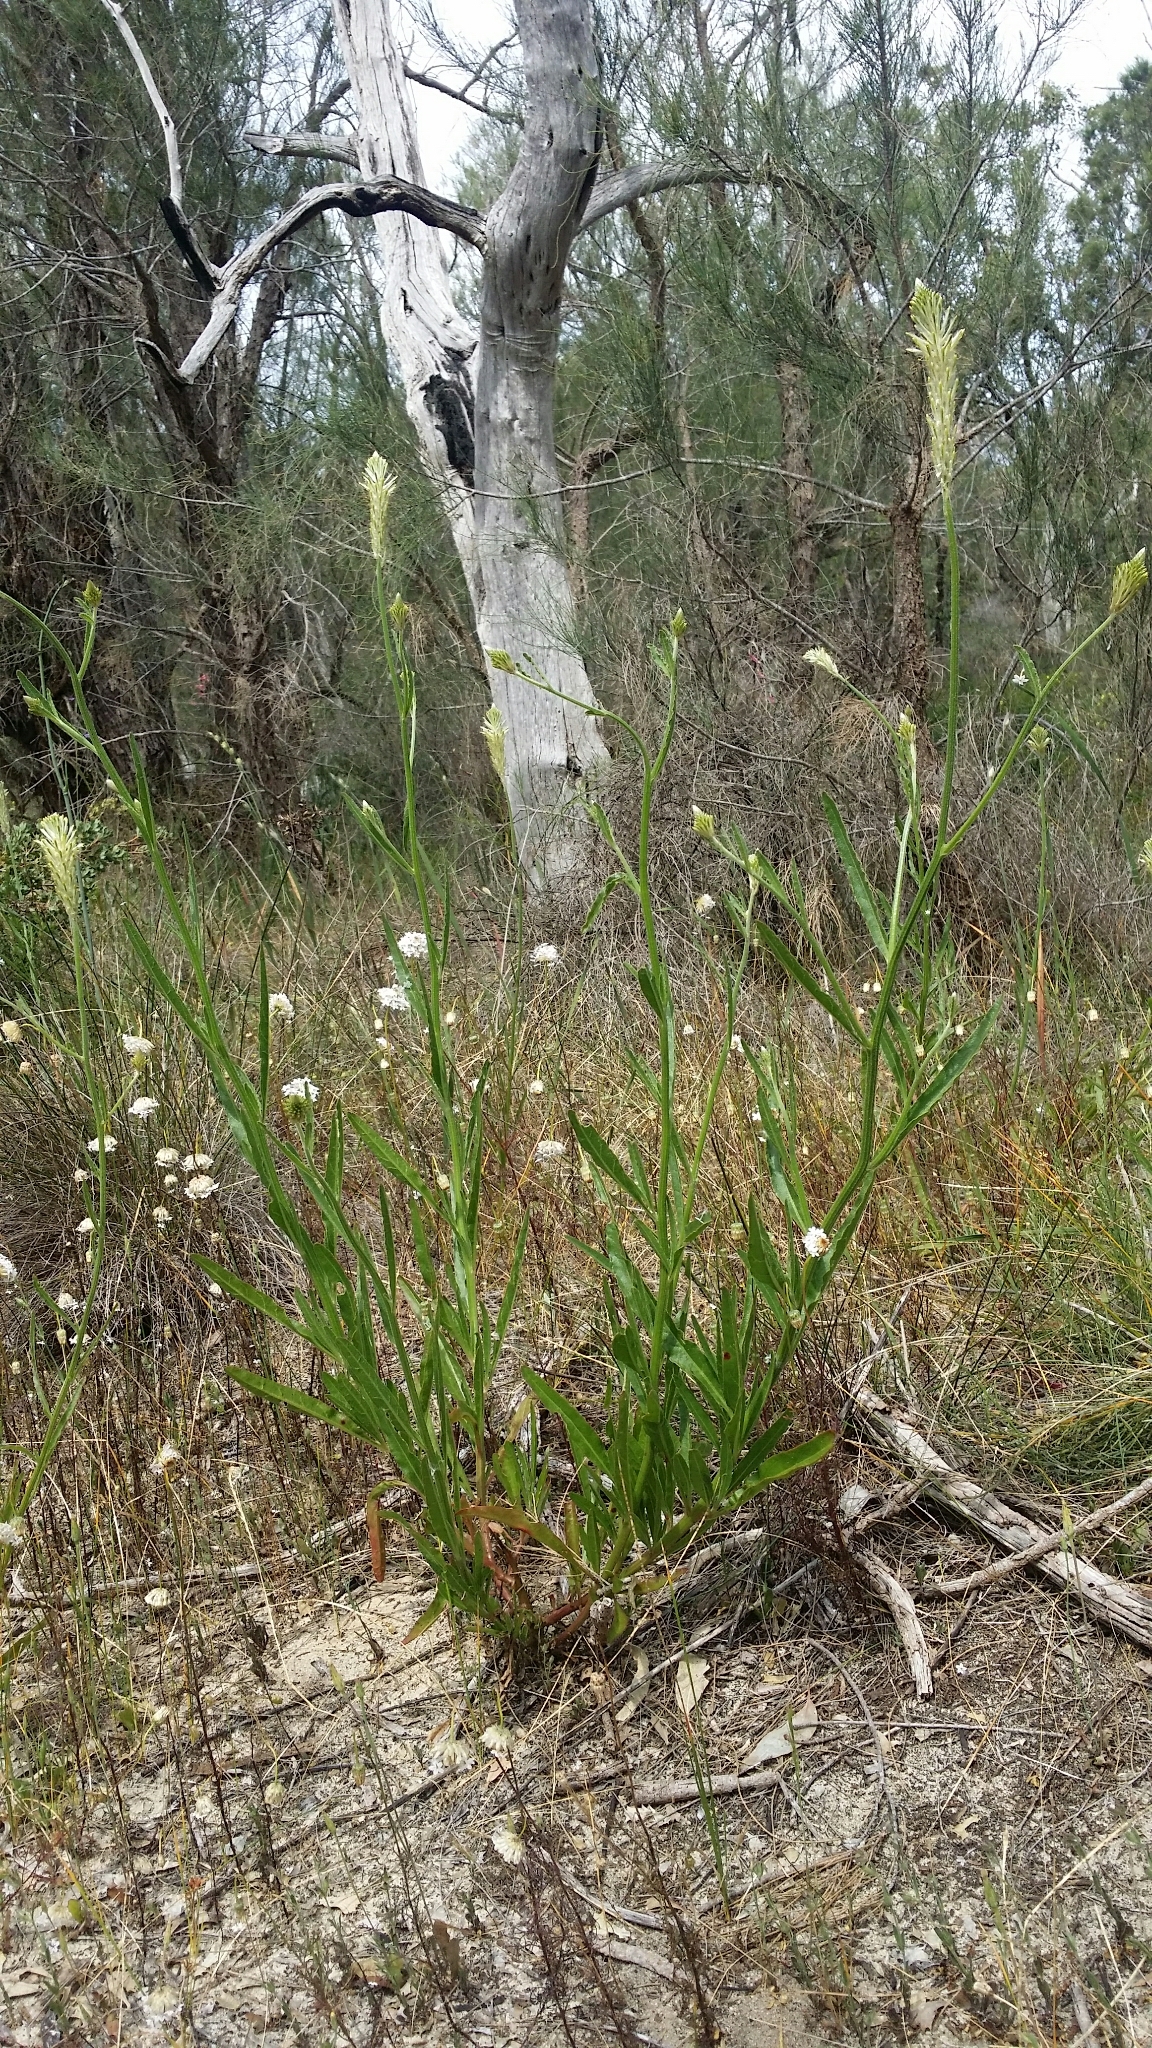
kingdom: Plantae
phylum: Tracheophyta
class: Magnoliopsida
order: Caryophyllales
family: Amaranthaceae
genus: Ptilotus
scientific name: Ptilotus polystachyus
